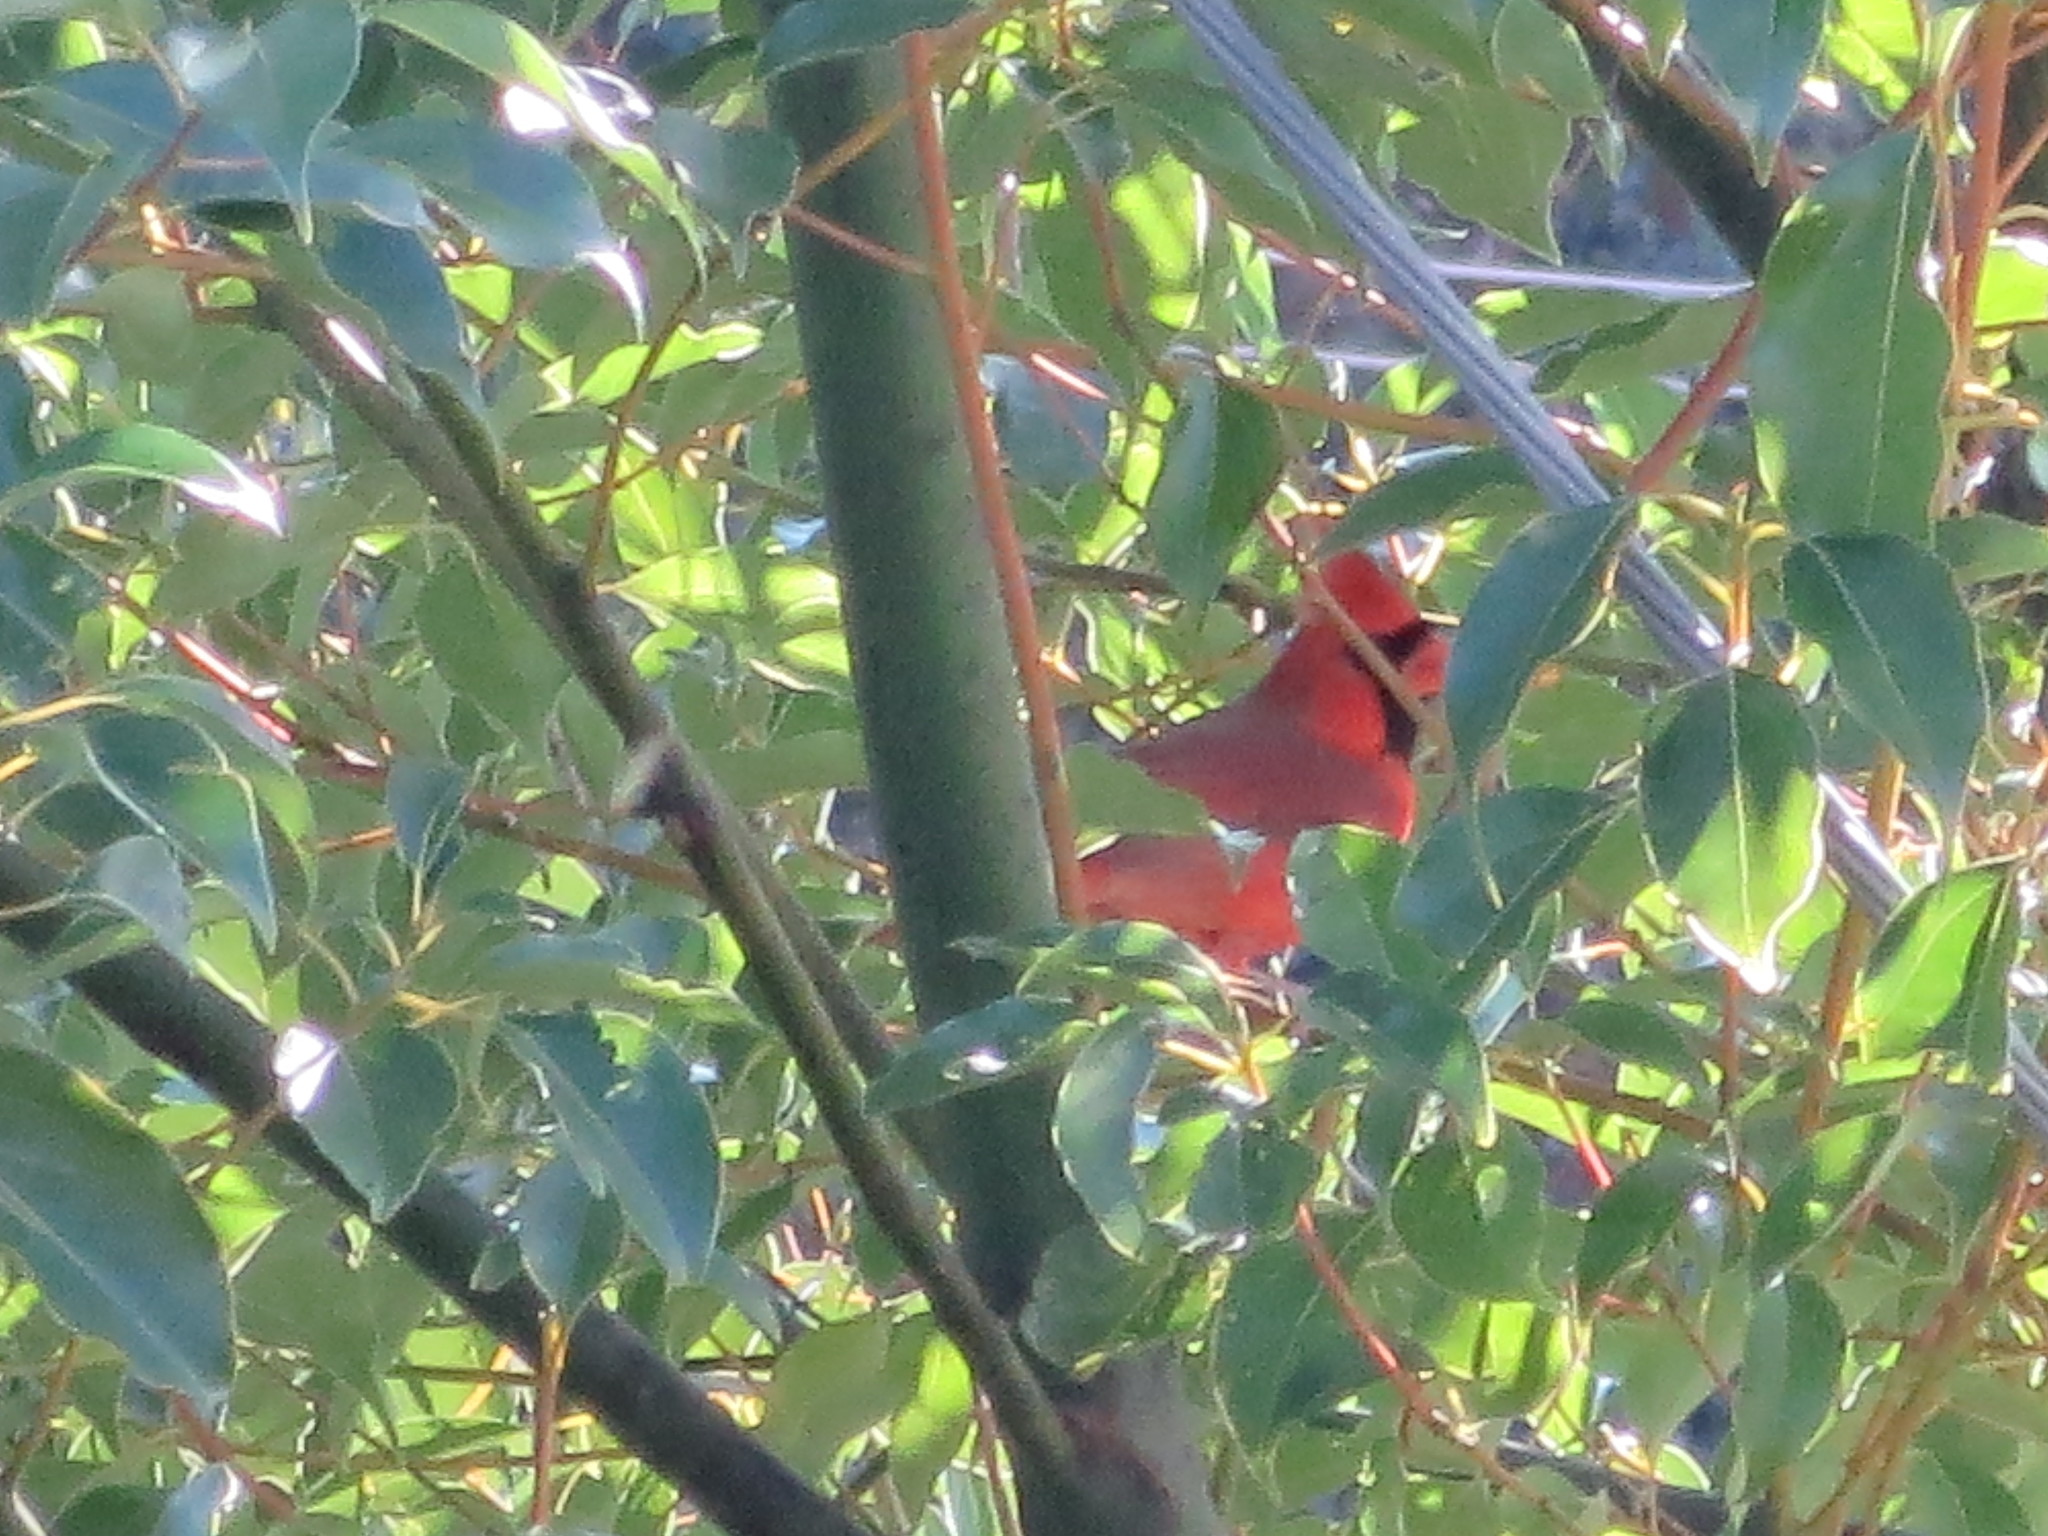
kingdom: Animalia
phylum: Chordata
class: Aves
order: Passeriformes
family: Cardinalidae
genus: Cardinalis
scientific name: Cardinalis cardinalis
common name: Northern cardinal
